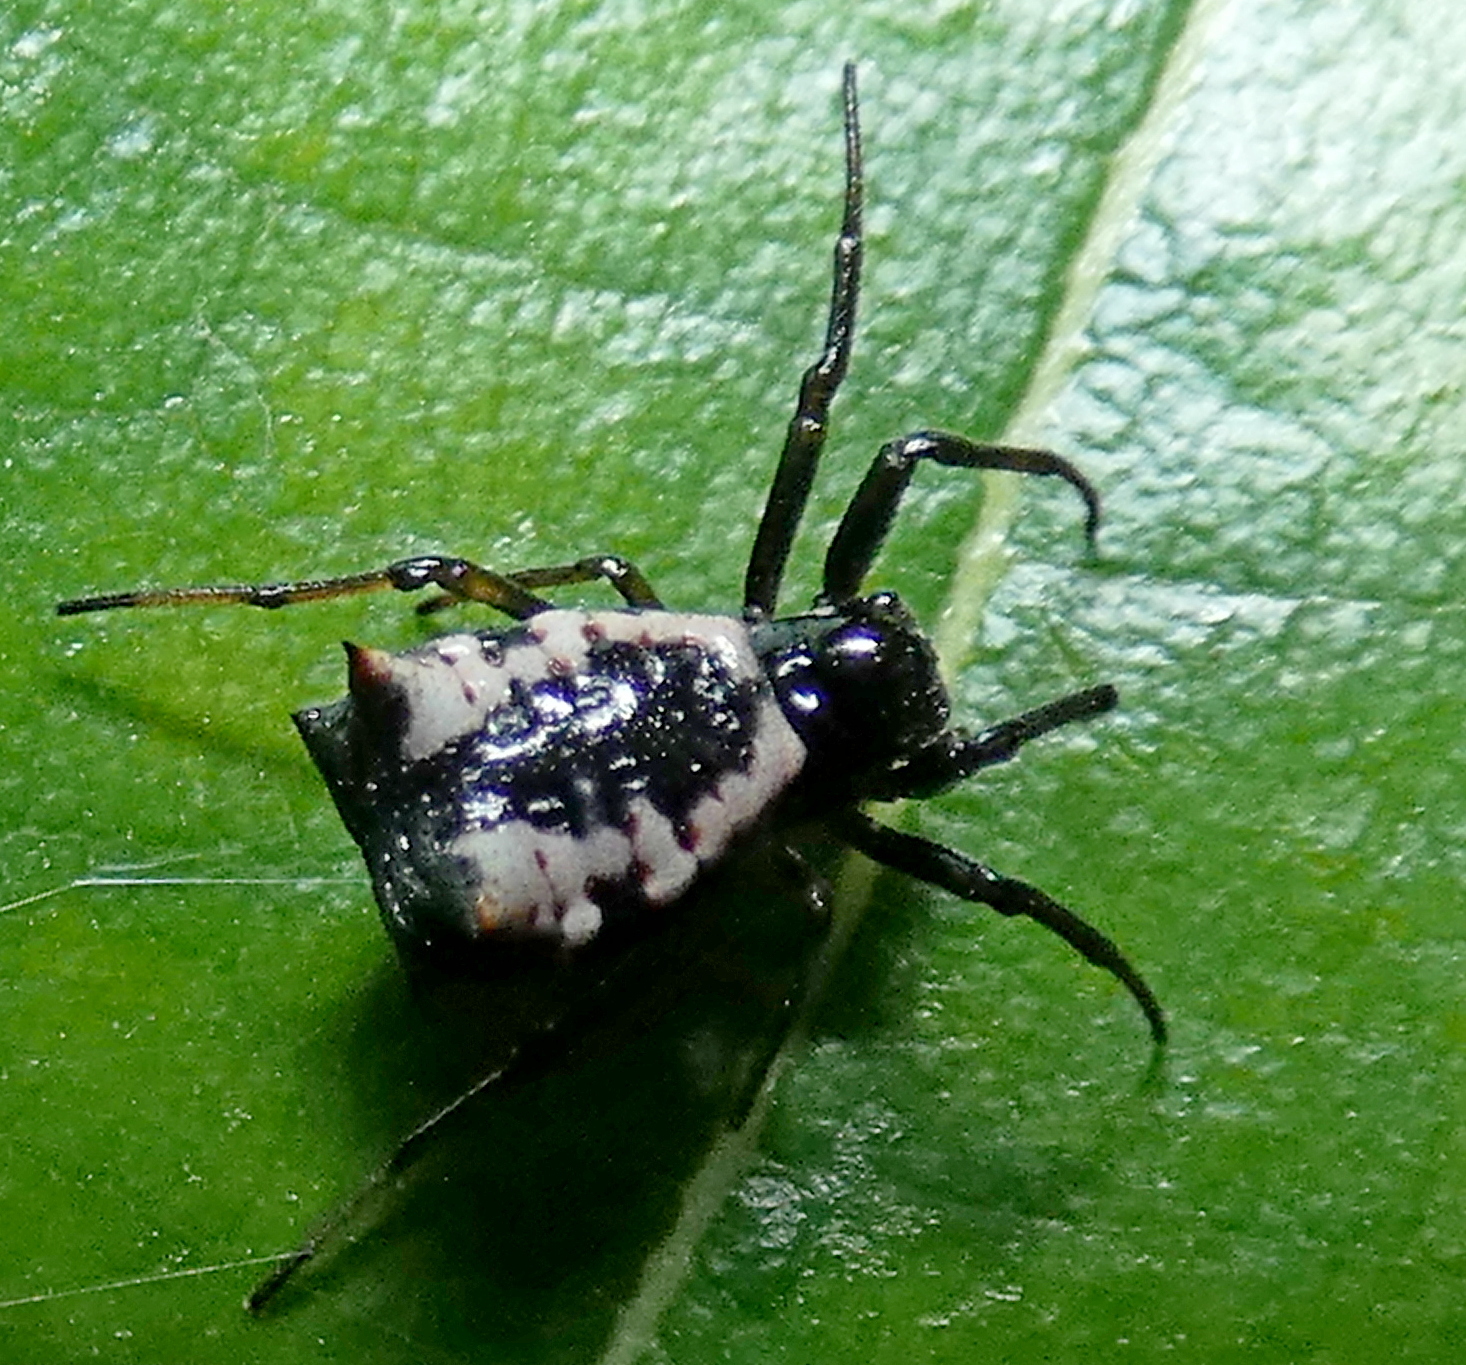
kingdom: Animalia
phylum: Arthropoda
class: Arachnida
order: Araneae
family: Araneidae
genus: Micrathena
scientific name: Micrathena patruelis
